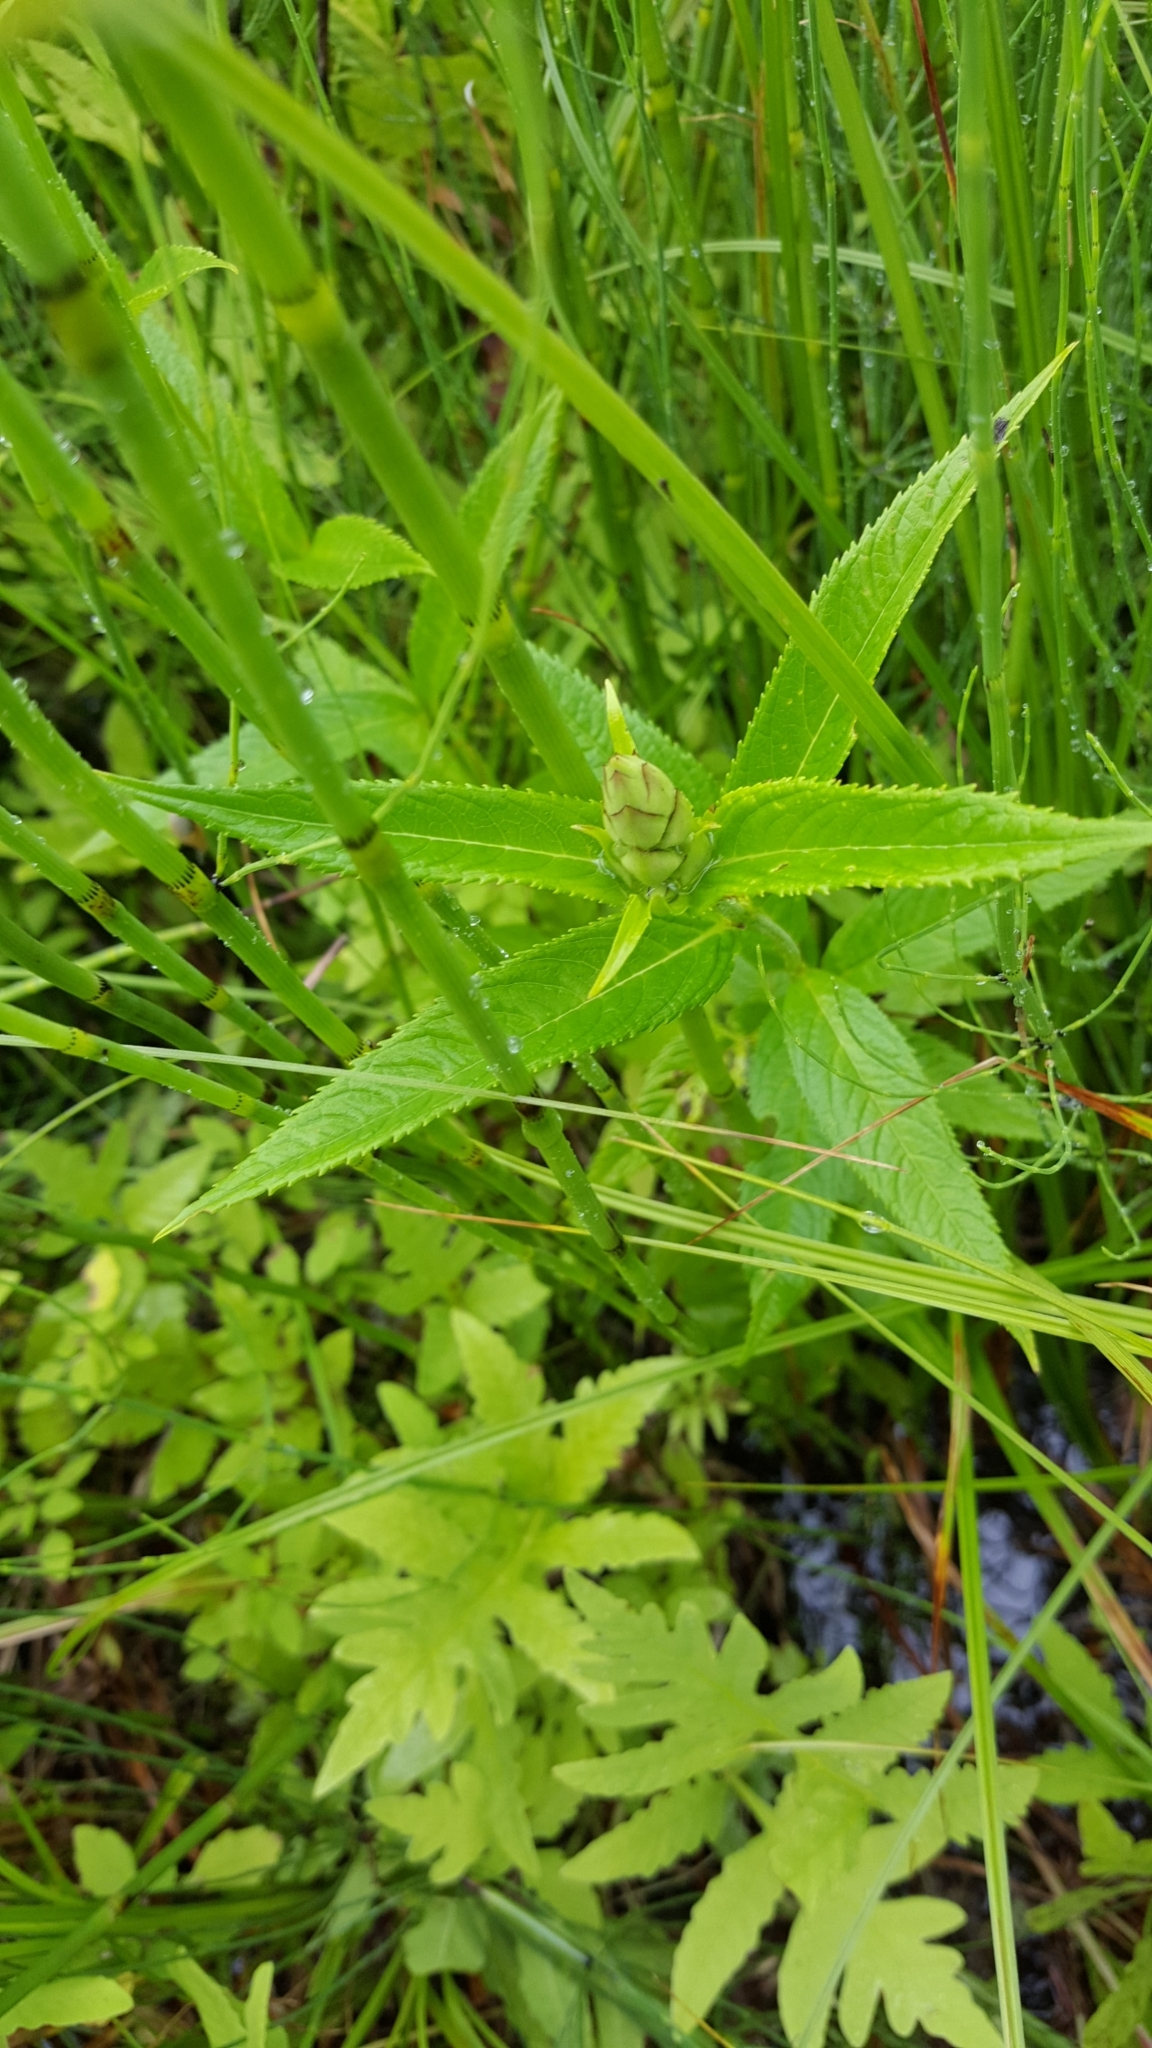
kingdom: Plantae
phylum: Tracheophyta
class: Magnoliopsida
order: Lamiales
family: Plantaginaceae
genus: Chelone
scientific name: Chelone glabra
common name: Snakehead
